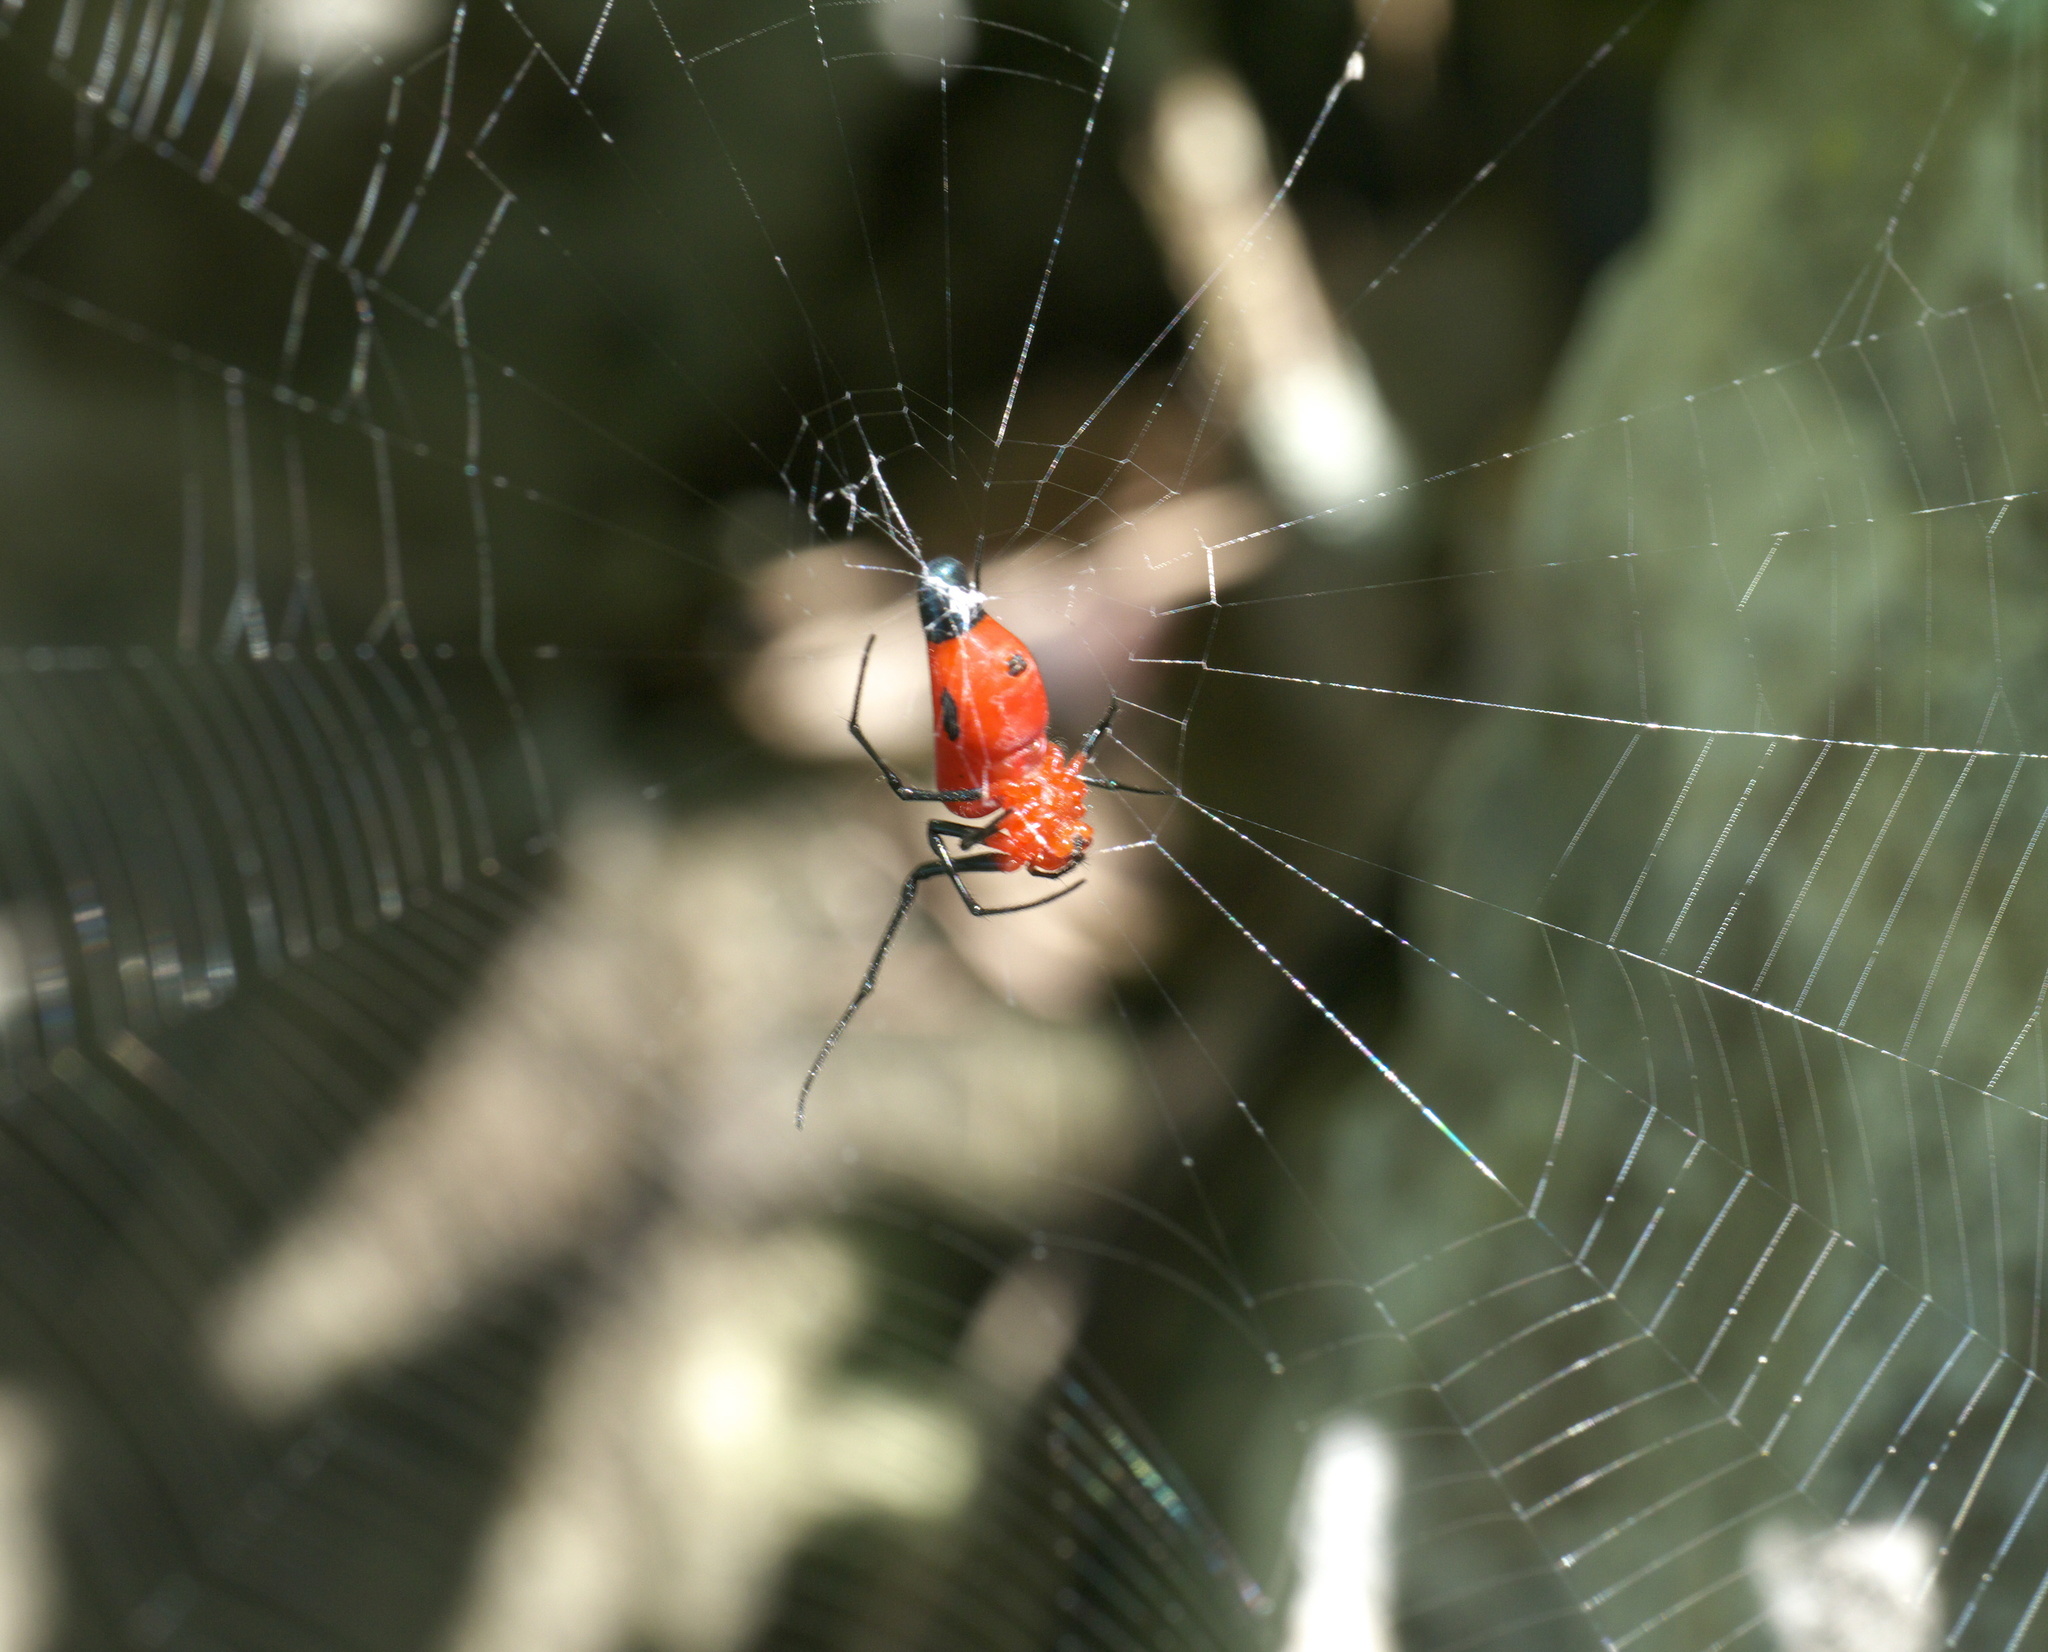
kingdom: Animalia
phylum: Arthropoda
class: Arachnida
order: Araneae
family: Tetragnathidae
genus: Leucauge
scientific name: Leucauge licina
